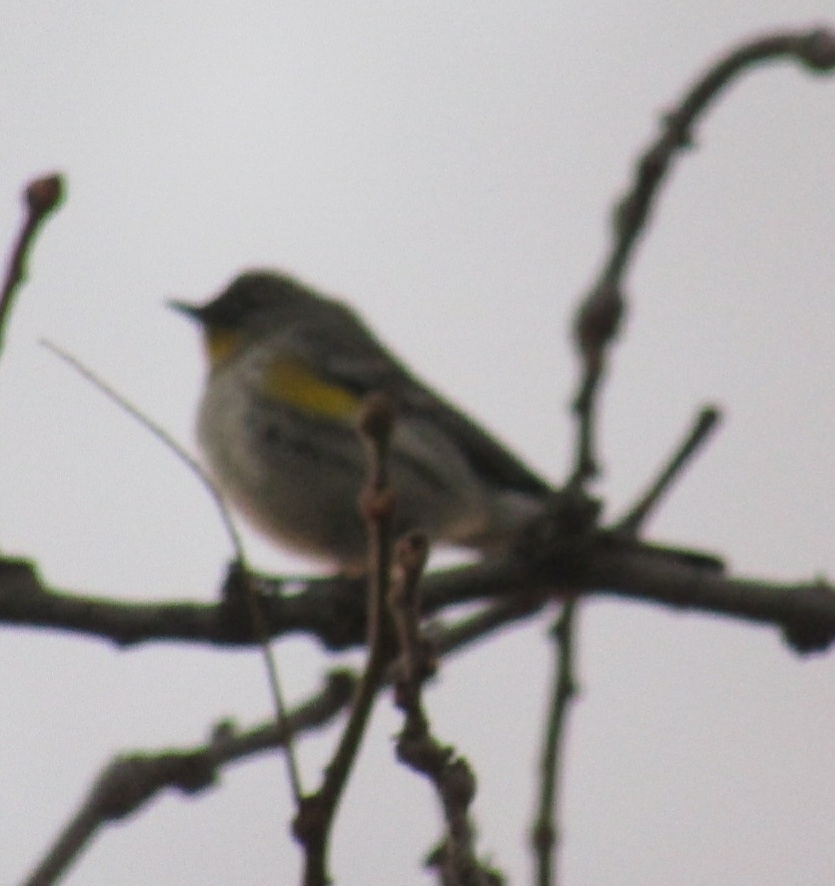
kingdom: Animalia
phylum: Chordata
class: Aves
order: Passeriformes
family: Parulidae
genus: Setophaga
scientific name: Setophaga coronata
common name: Myrtle warbler
